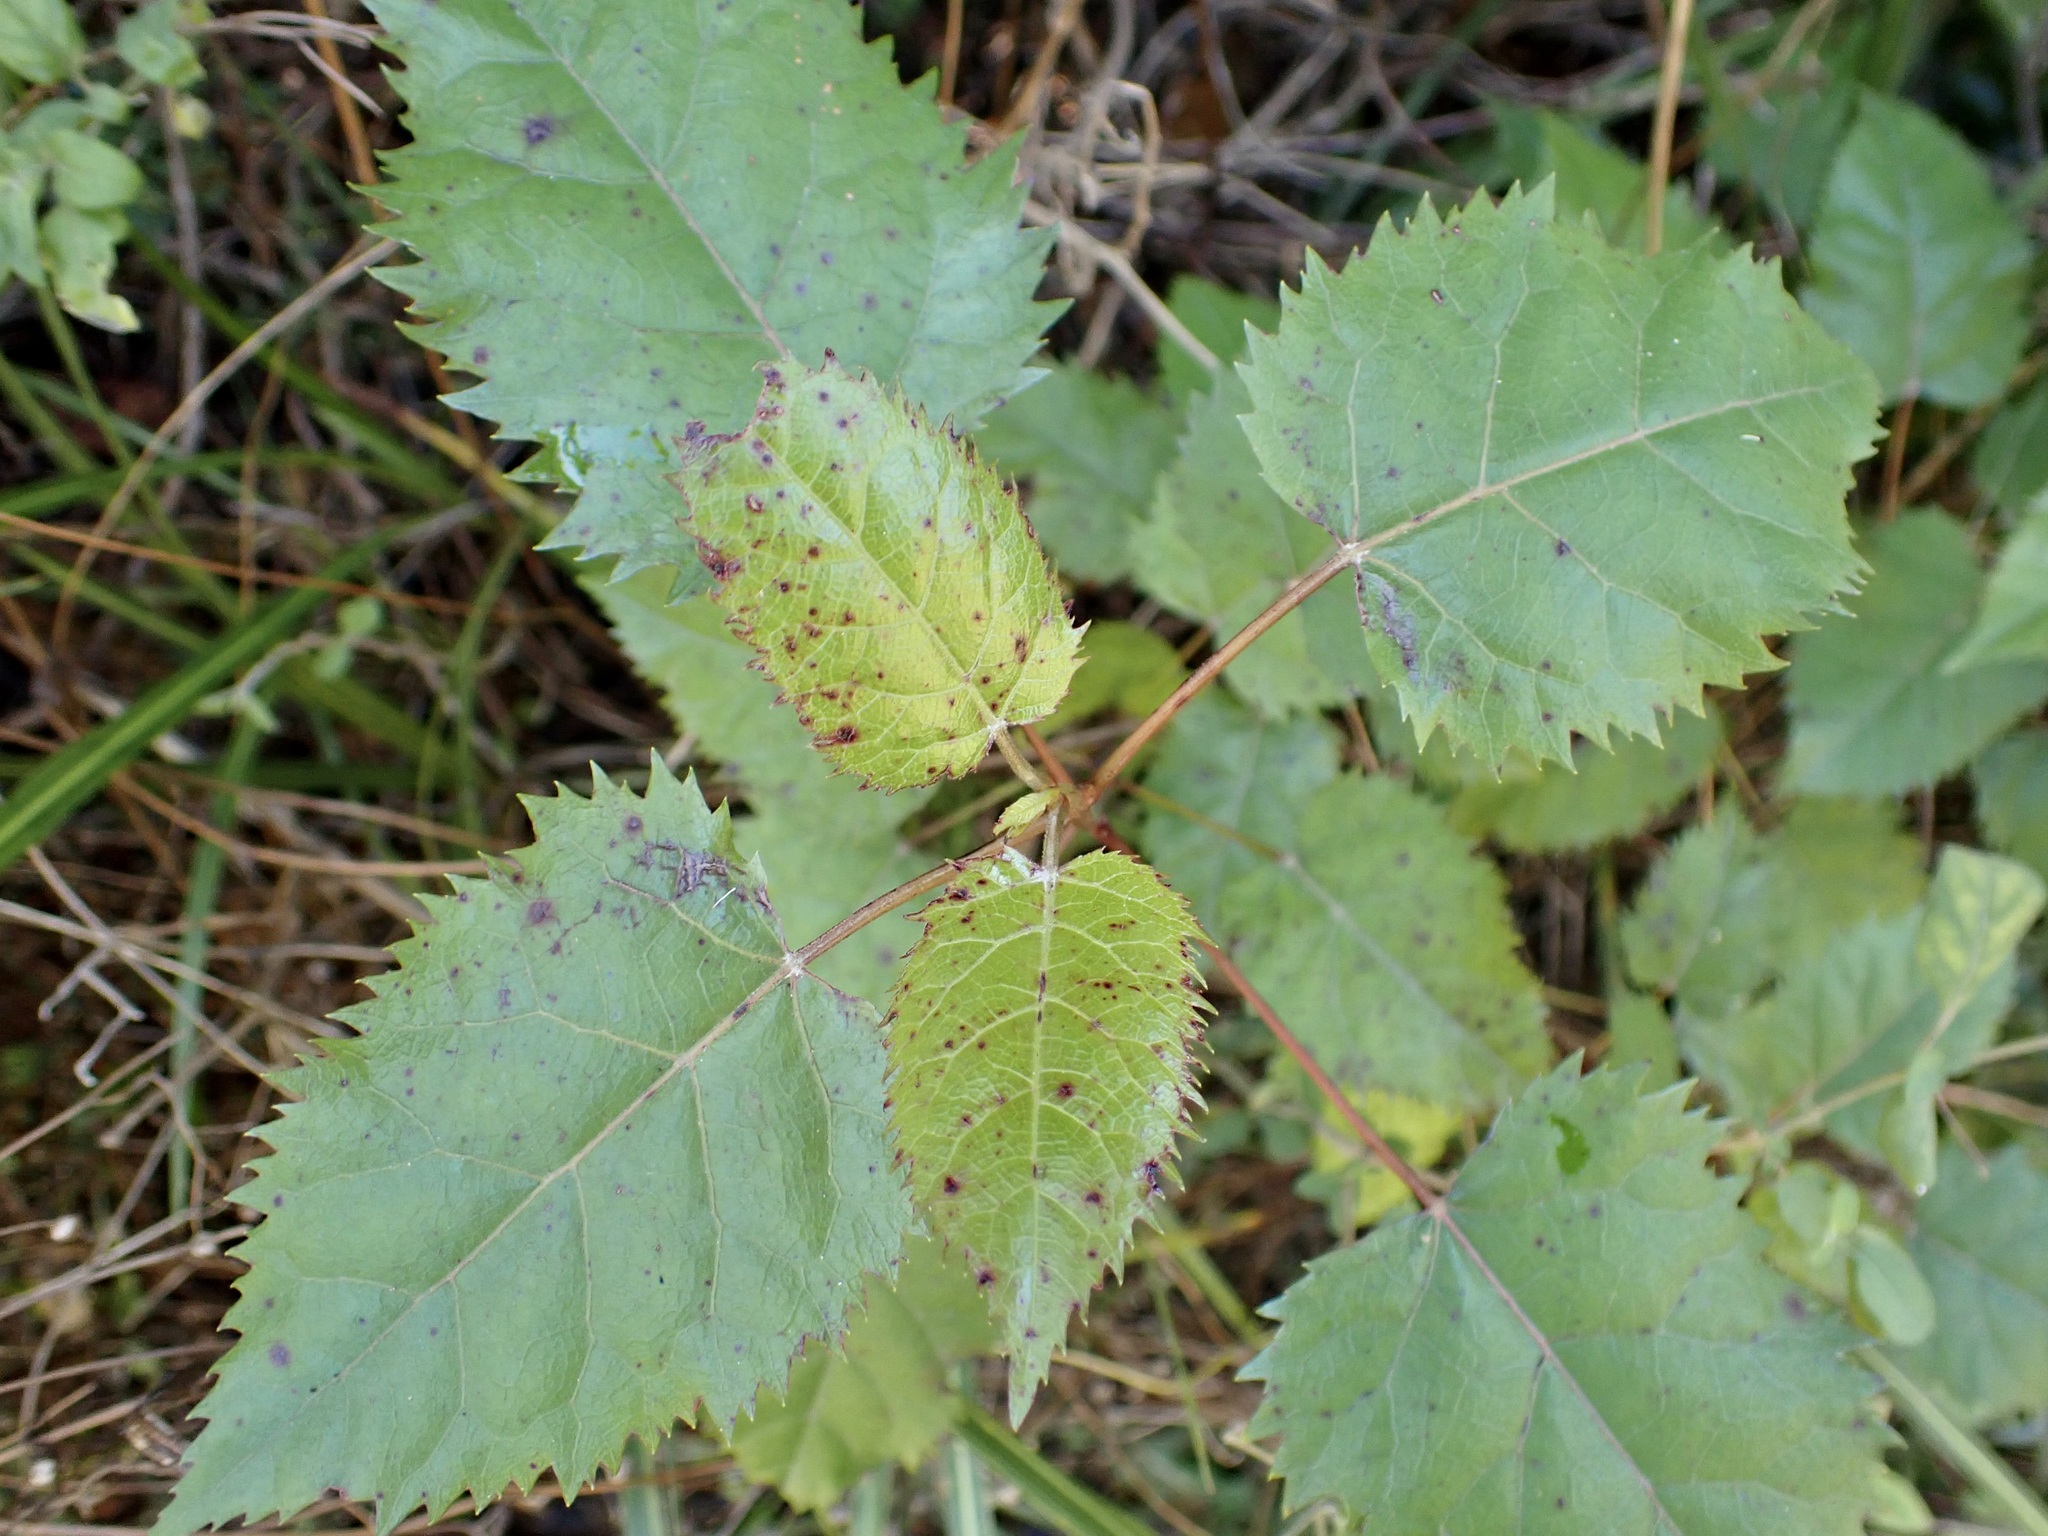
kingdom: Plantae
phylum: Tracheophyta
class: Magnoliopsida
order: Oxalidales
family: Elaeocarpaceae
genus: Aristotelia
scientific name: Aristotelia serrata
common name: New zealand wineberry
